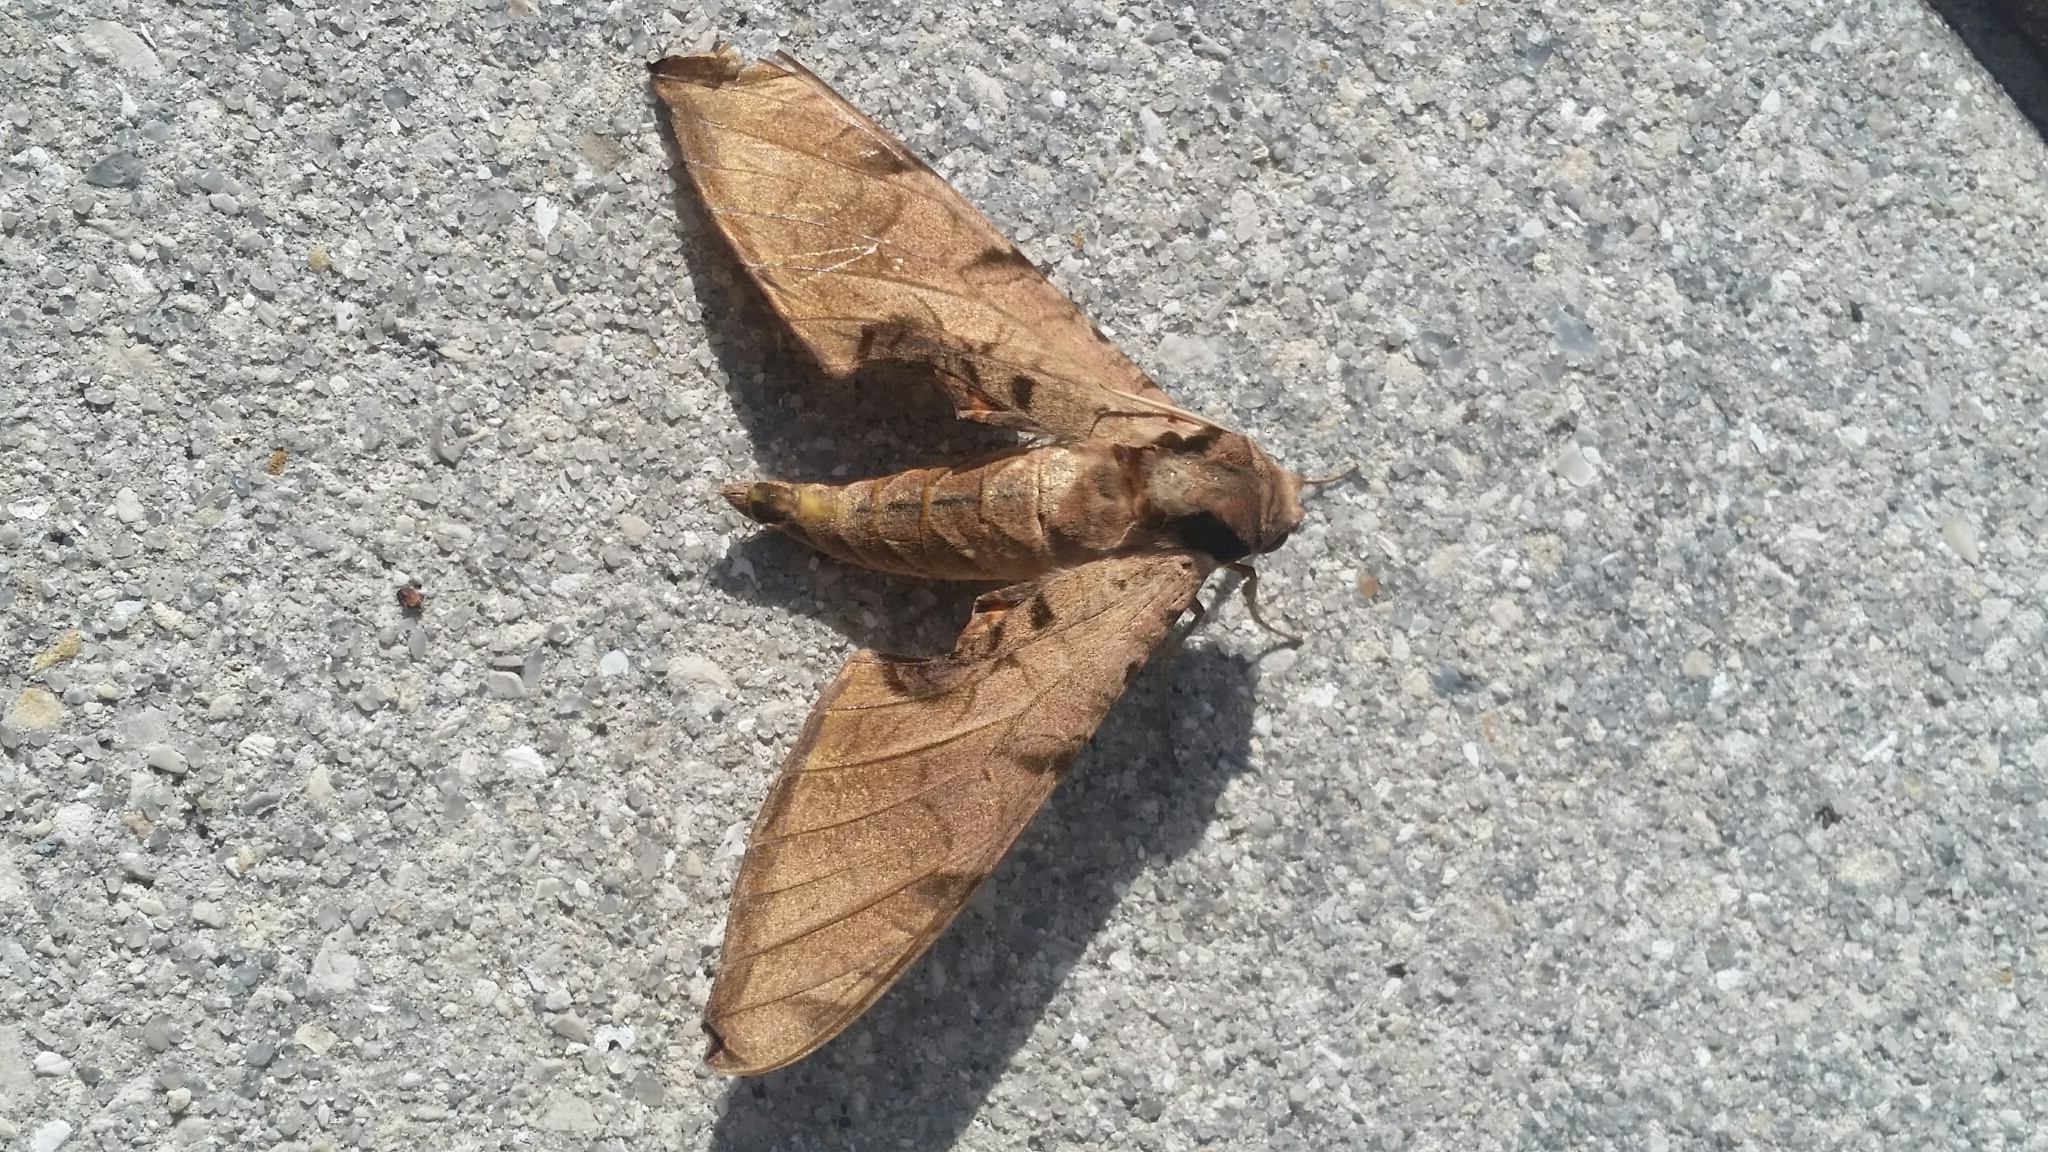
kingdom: Animalia
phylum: Arthropoda
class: Insecta
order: Lepidoptera
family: Sphingidae
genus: Protambulyx
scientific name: Protambulyx strigilis
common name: Streaked sphinx
